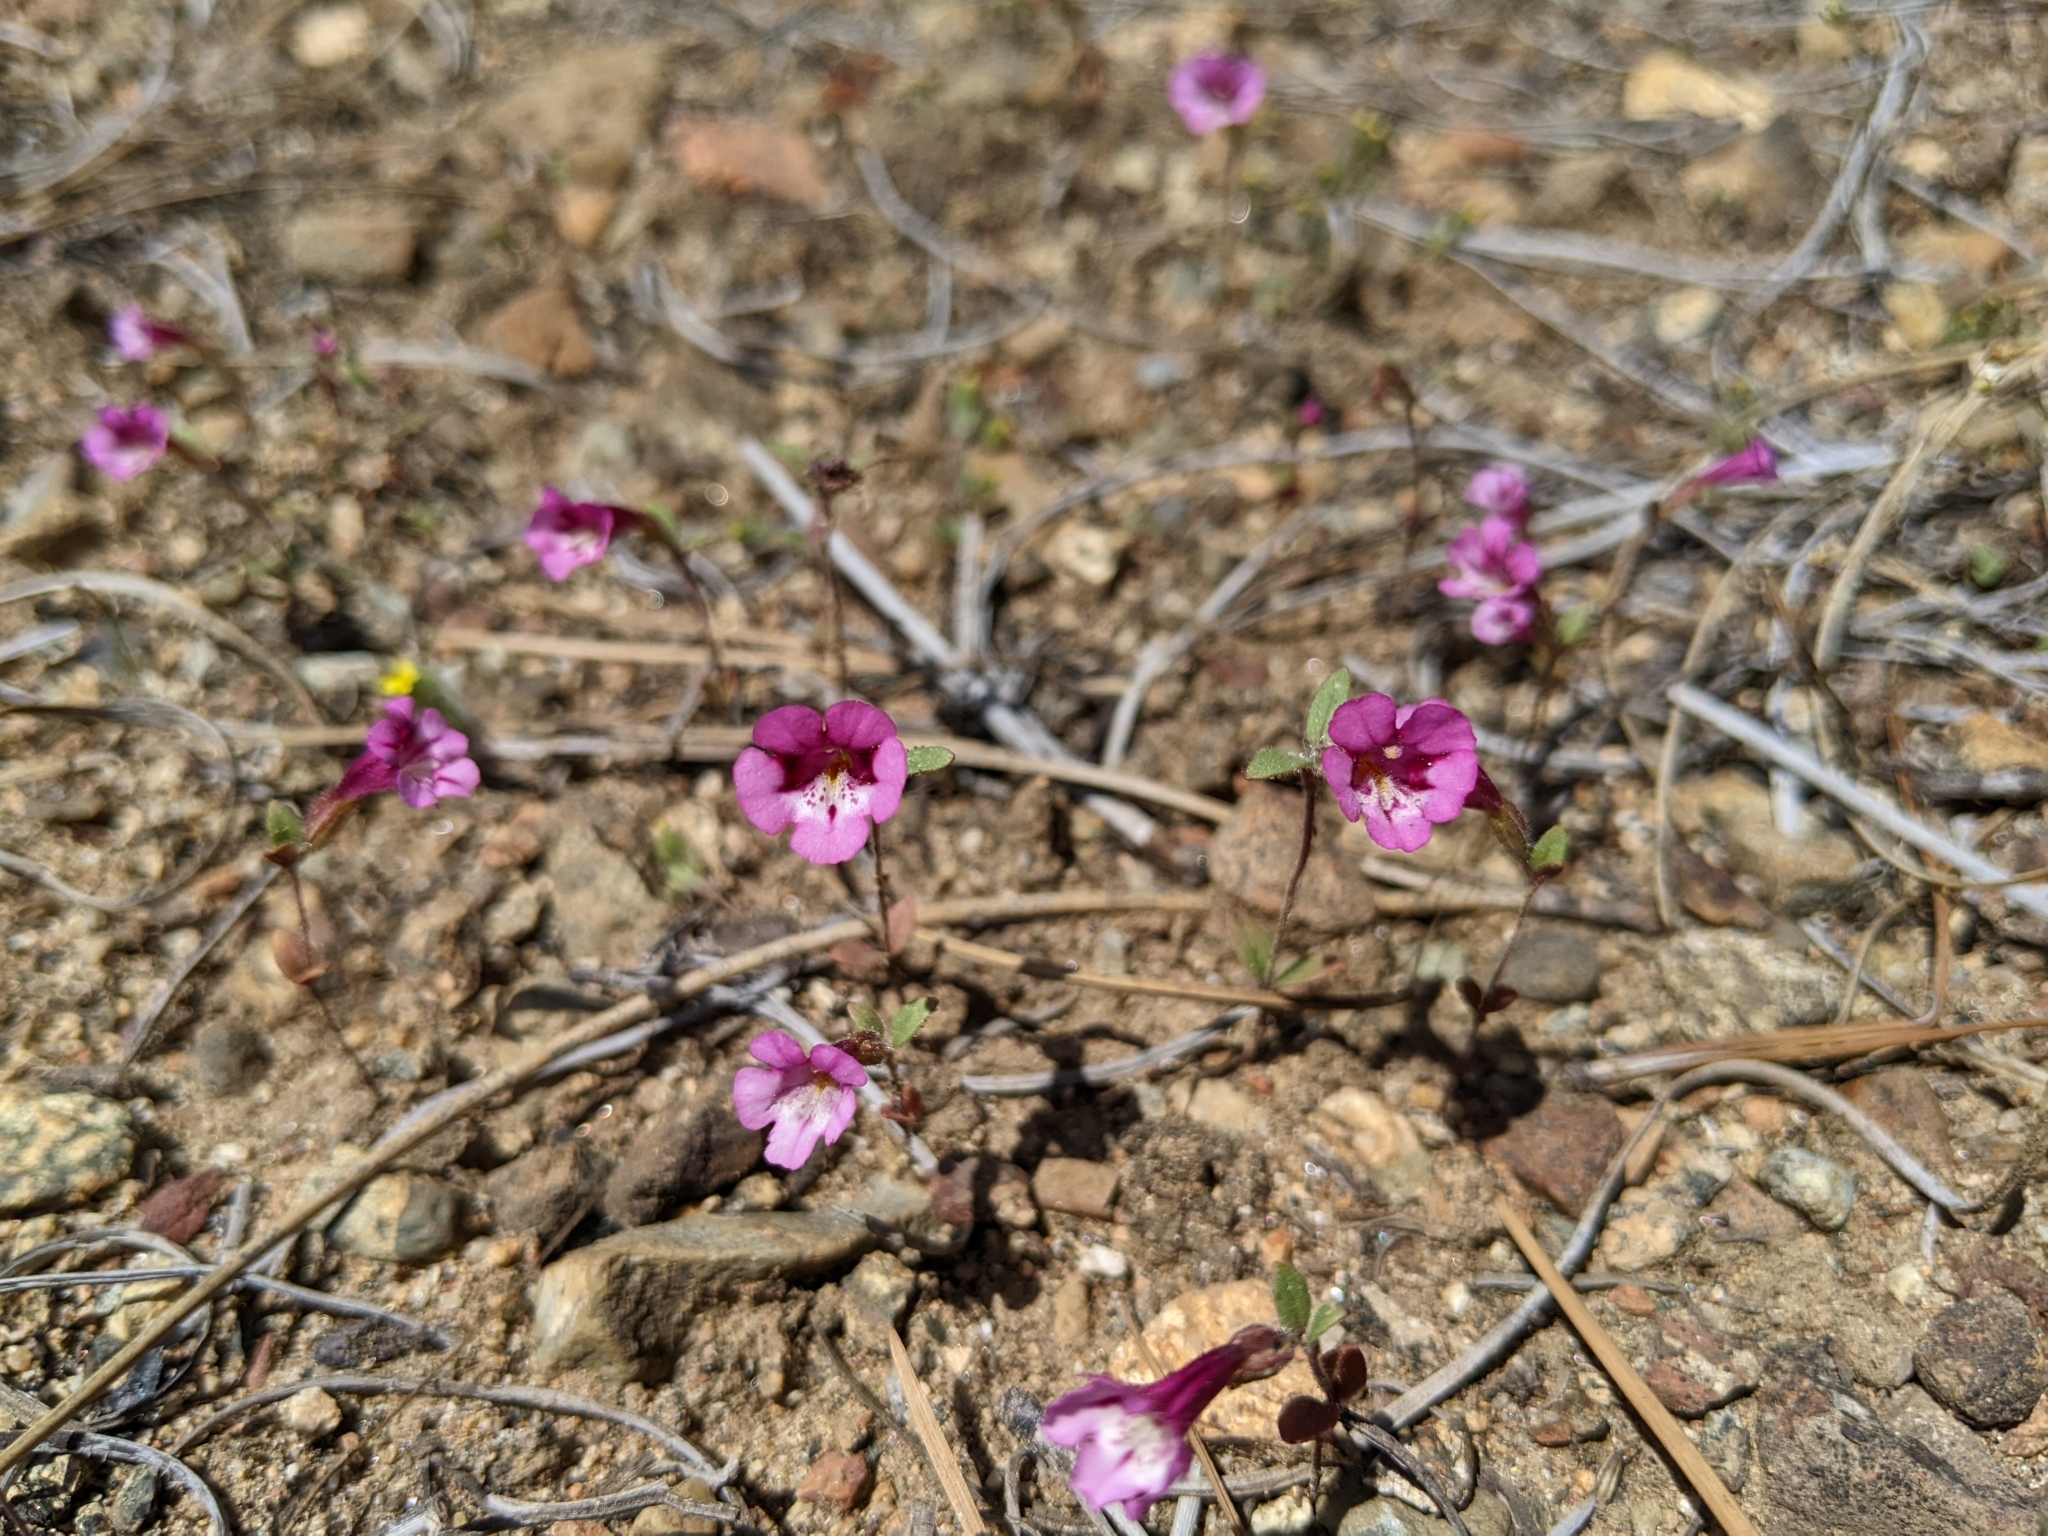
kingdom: Plantae
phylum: Tracheophyta
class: Magnoliopsida
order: Lamiales
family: Phrymaceae
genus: Diplacus
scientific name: Diplacus layneae
